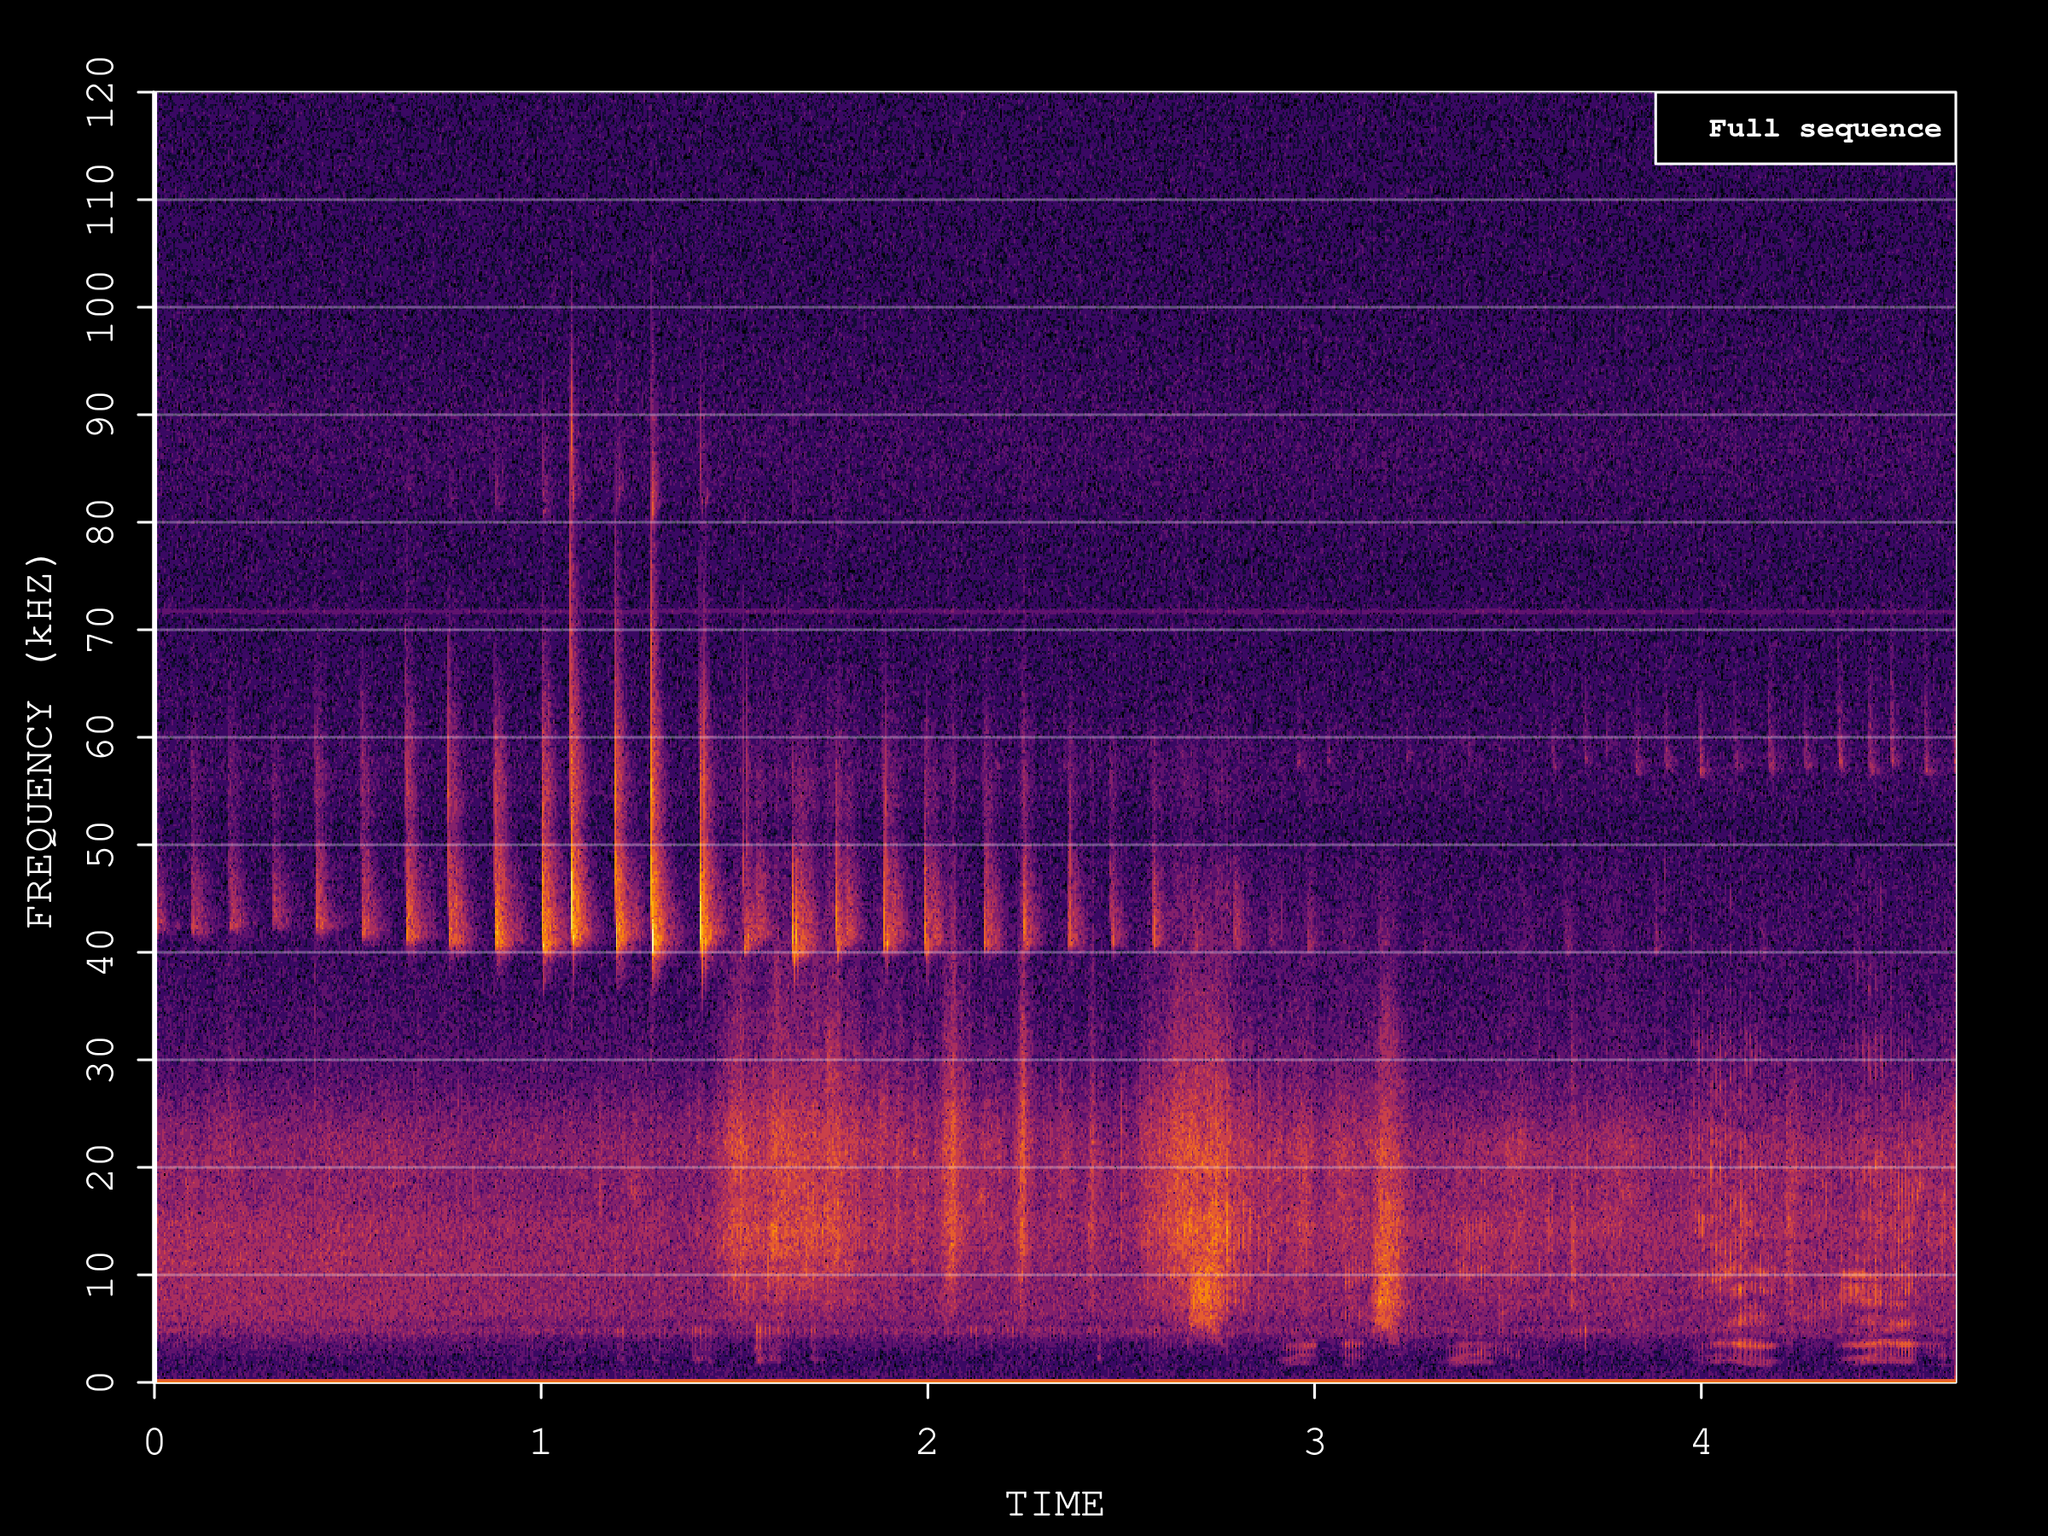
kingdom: Animalia
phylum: Chordata
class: Mammalia
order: Chiroptera
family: Vespertilionidae
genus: Pipistrellus
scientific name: Pipistrellus nathusii
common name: Nathusius's pipistrelle
